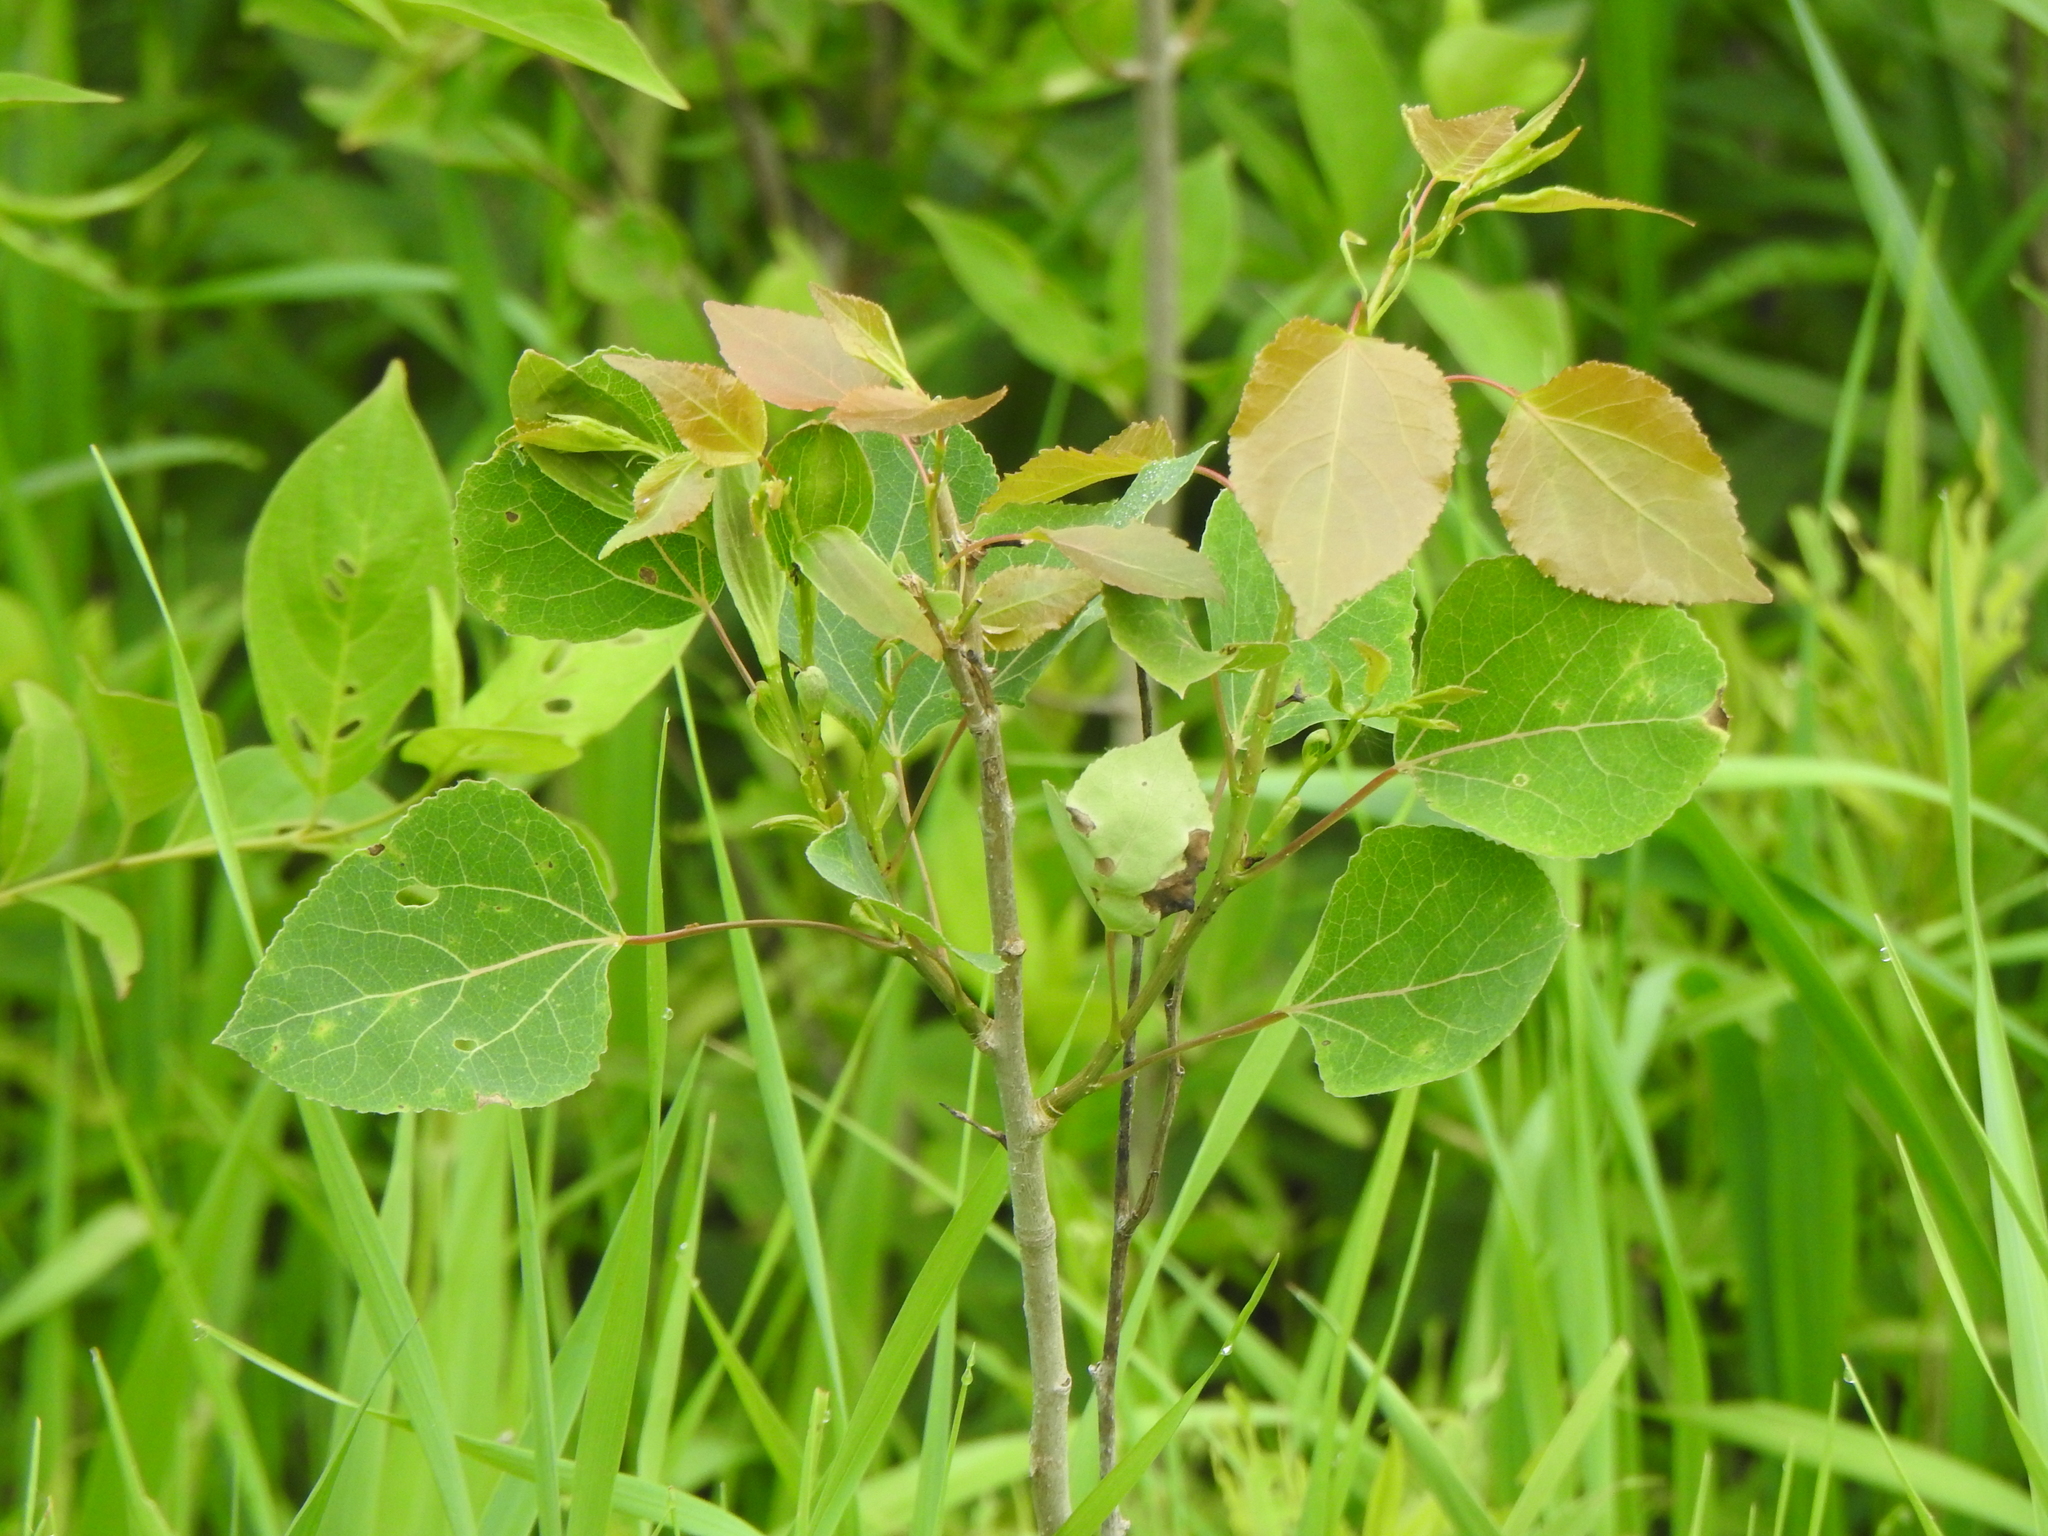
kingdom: Plantae
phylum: Tracheophyta
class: Magnoliopsida
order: Malpighiales
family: Salicaceae
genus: Populus
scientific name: Populus tremuloides
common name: Quaking aspen
